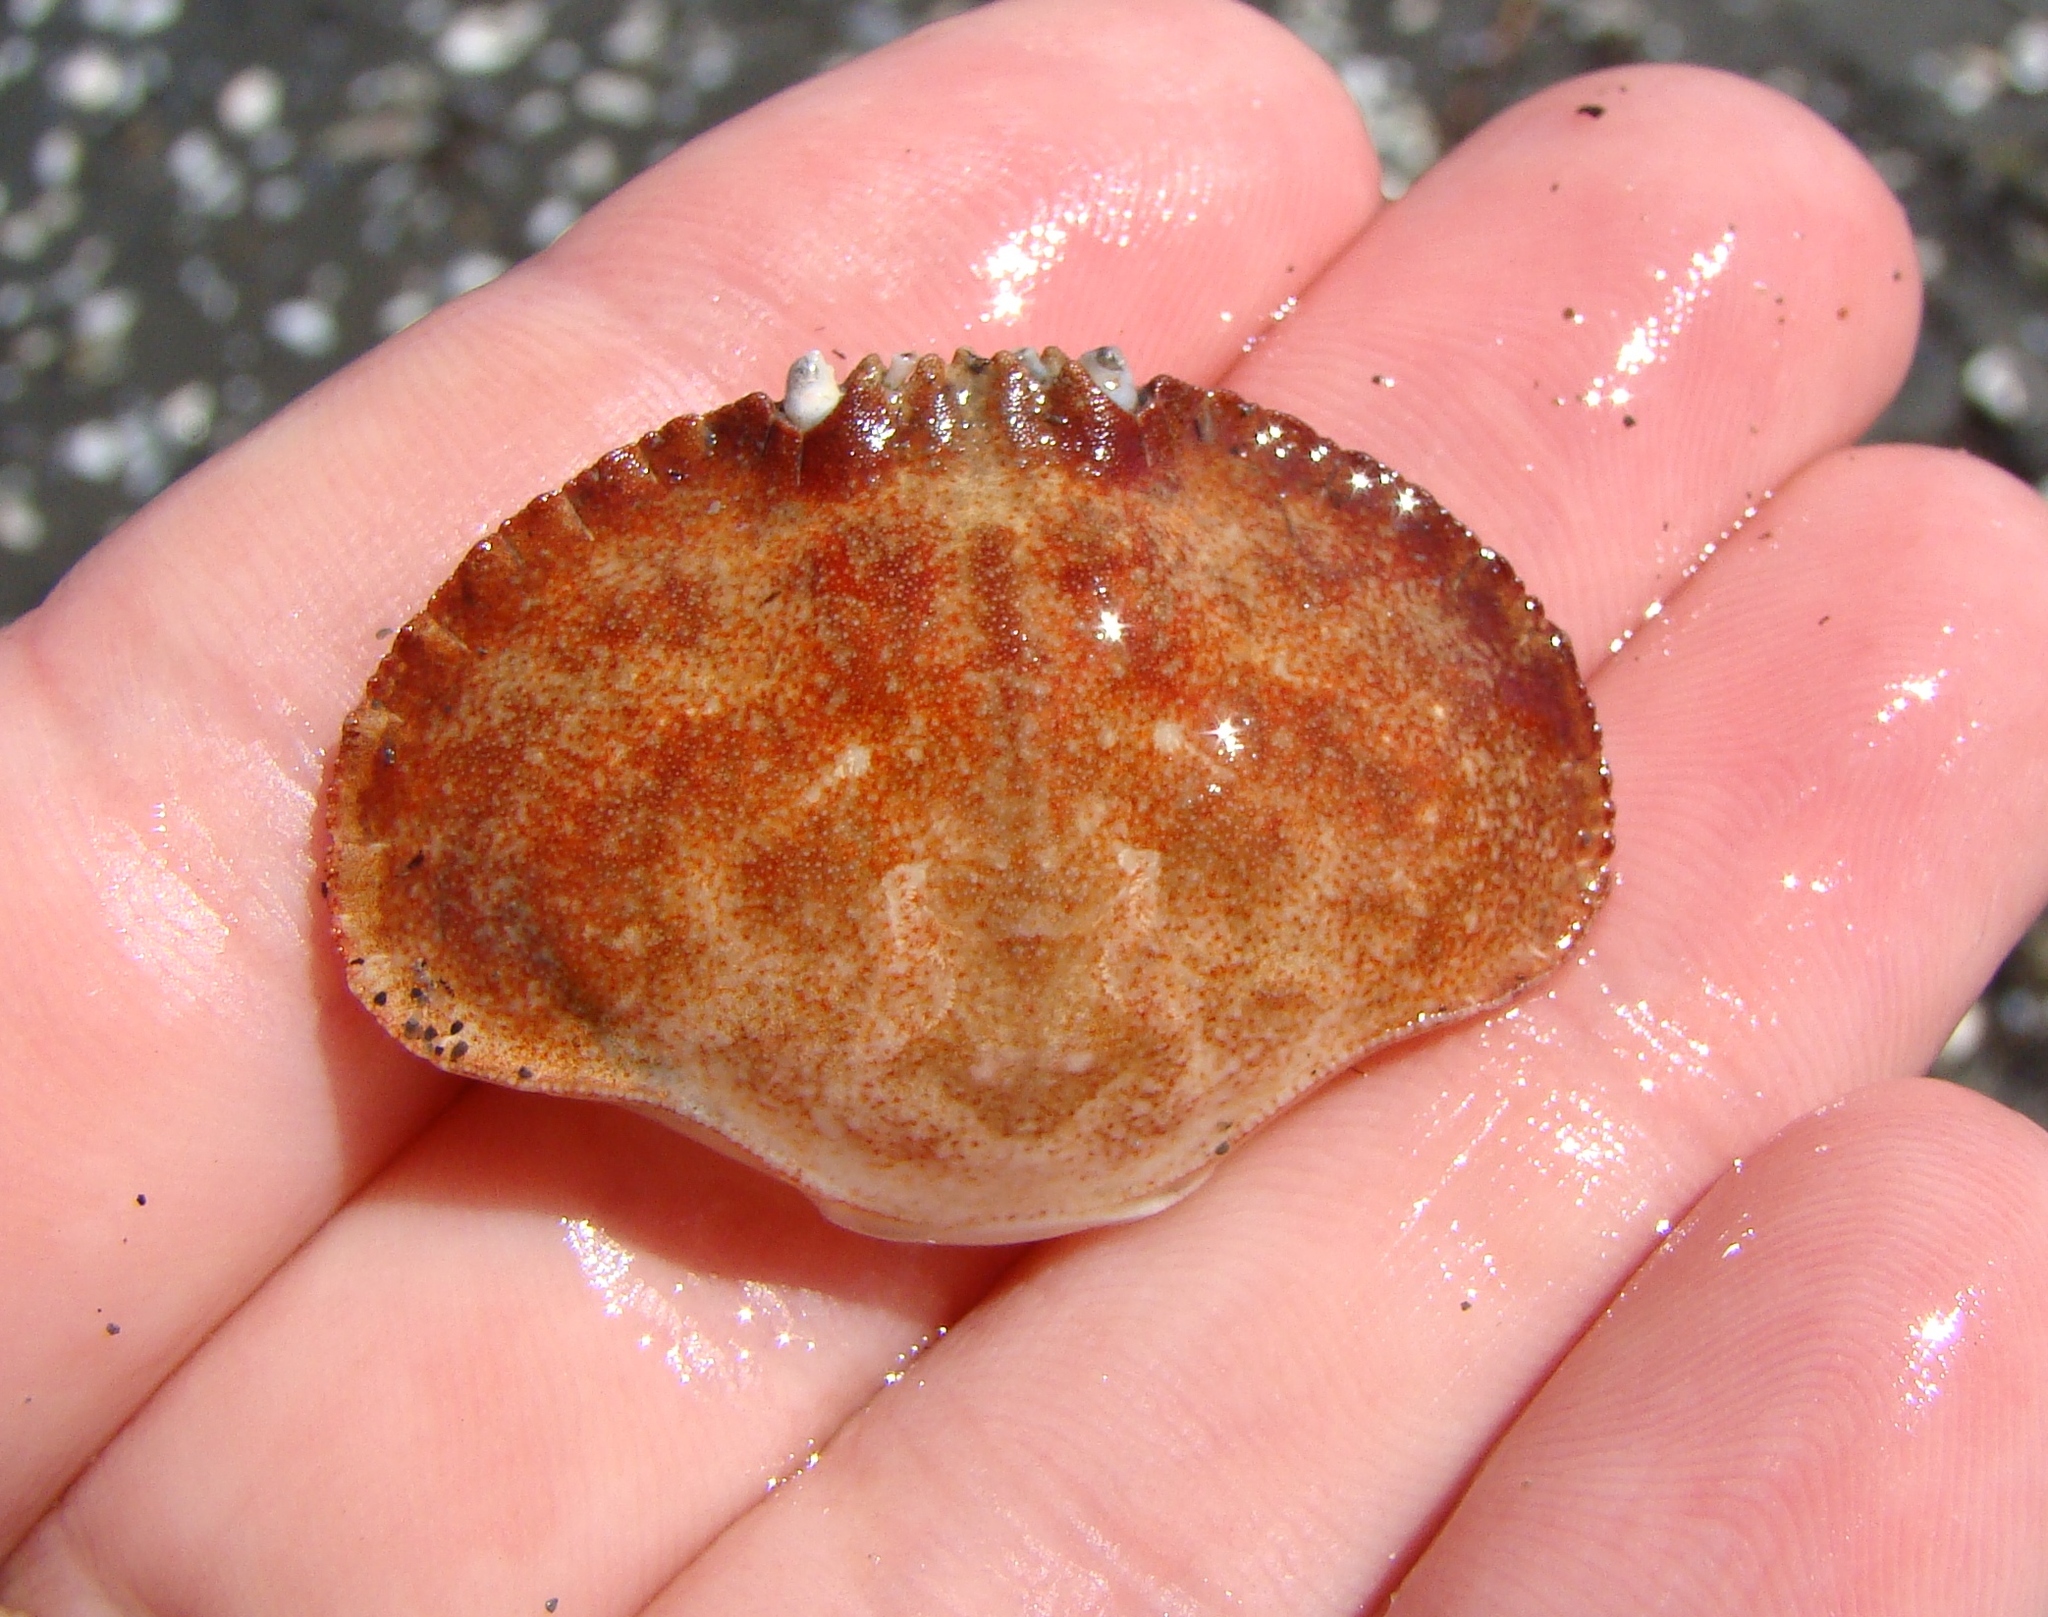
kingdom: Animalia
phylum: Arthropoda
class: Malacostraca
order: Decapoda
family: Cancridae
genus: Metacarcinus
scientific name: Metacarcinus novaezelandiae
